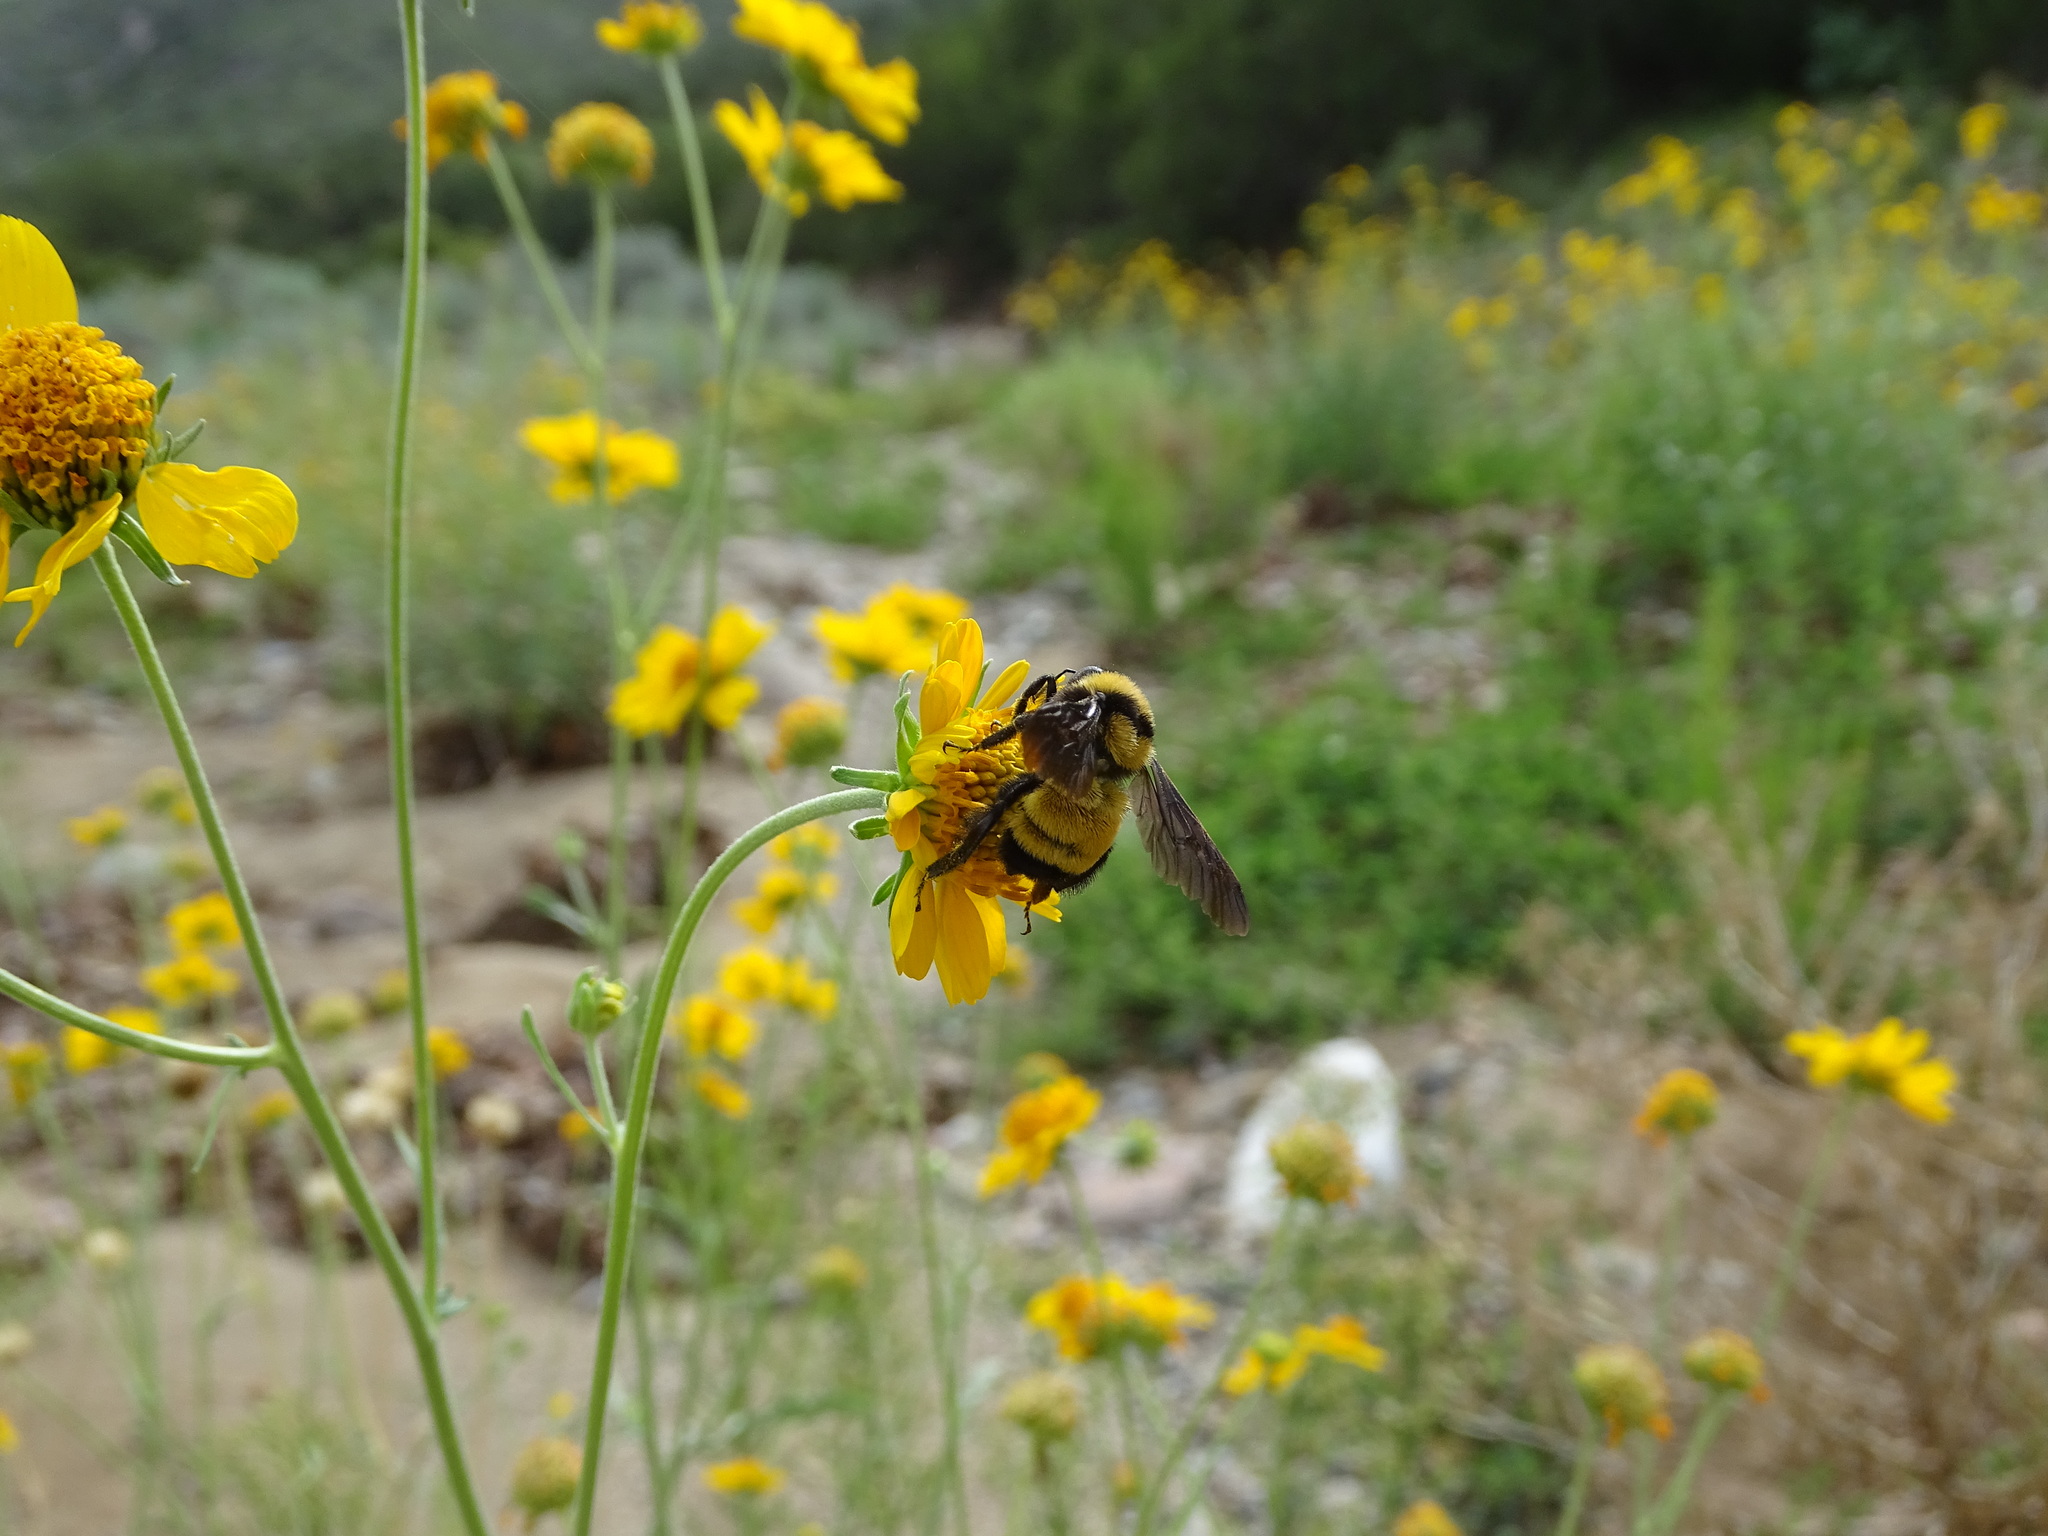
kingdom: Animalia
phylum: Arthropoda
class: Insecta
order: Hymenoptera
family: Apidae
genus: Bombus
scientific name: Bombus sonorus
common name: Sonoran bumble bee
